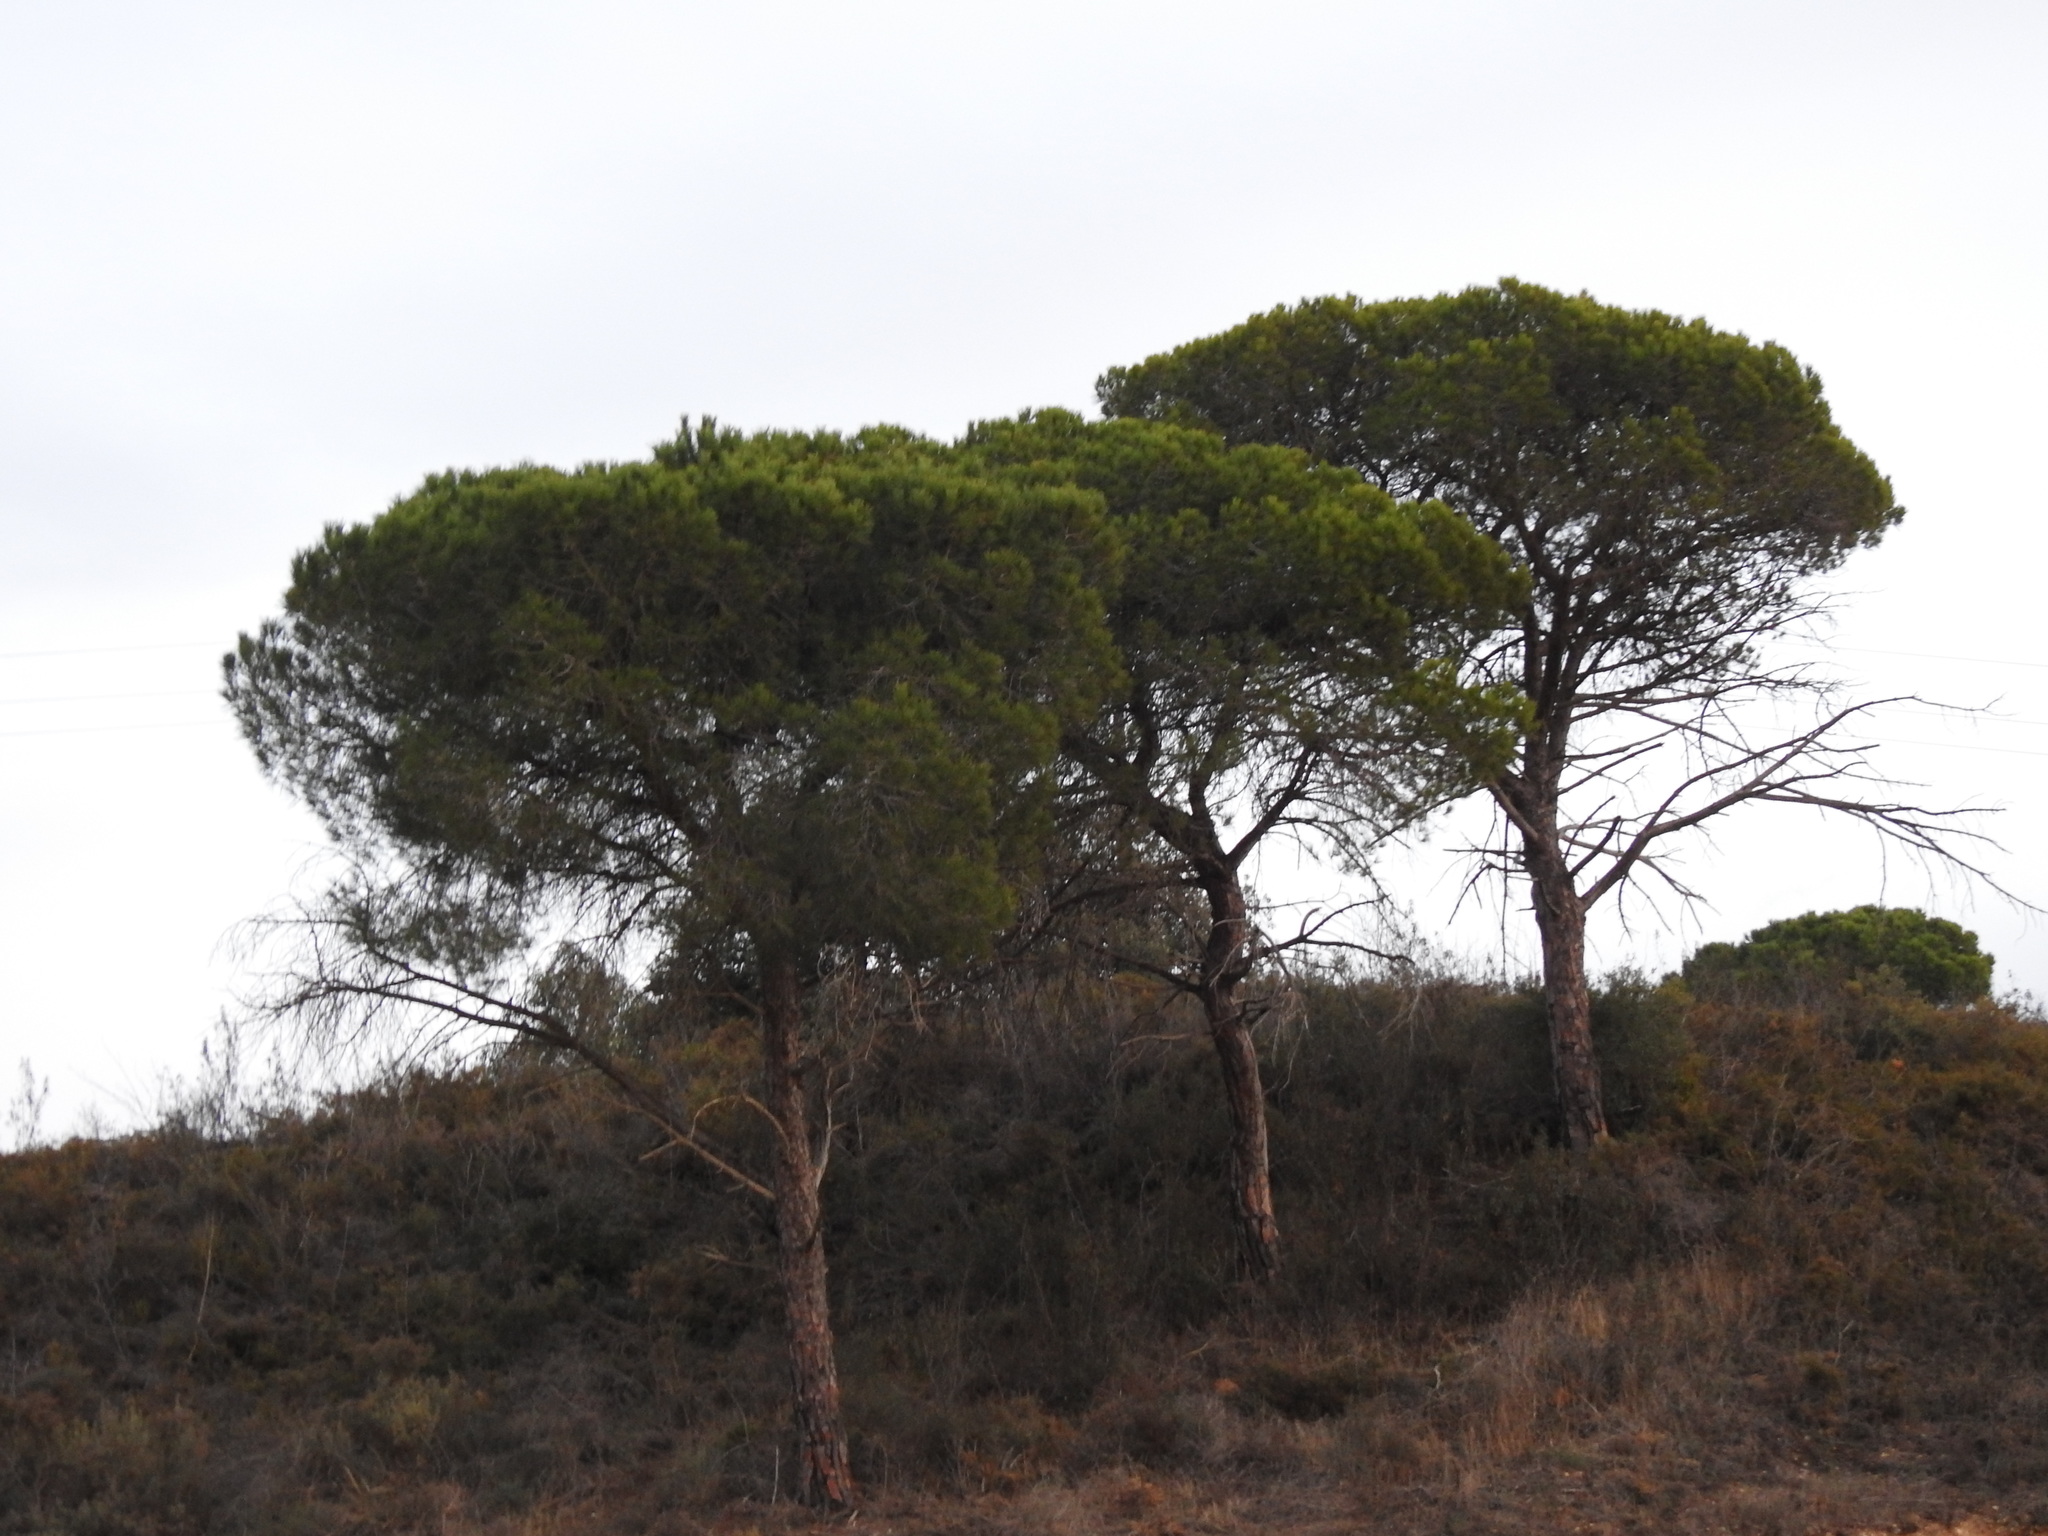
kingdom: Plantae
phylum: Tracheophyta
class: Pinopsida
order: Pinales
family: Pinaceae
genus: Pinus
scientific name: Pinus pinea
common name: Italian stone pine
